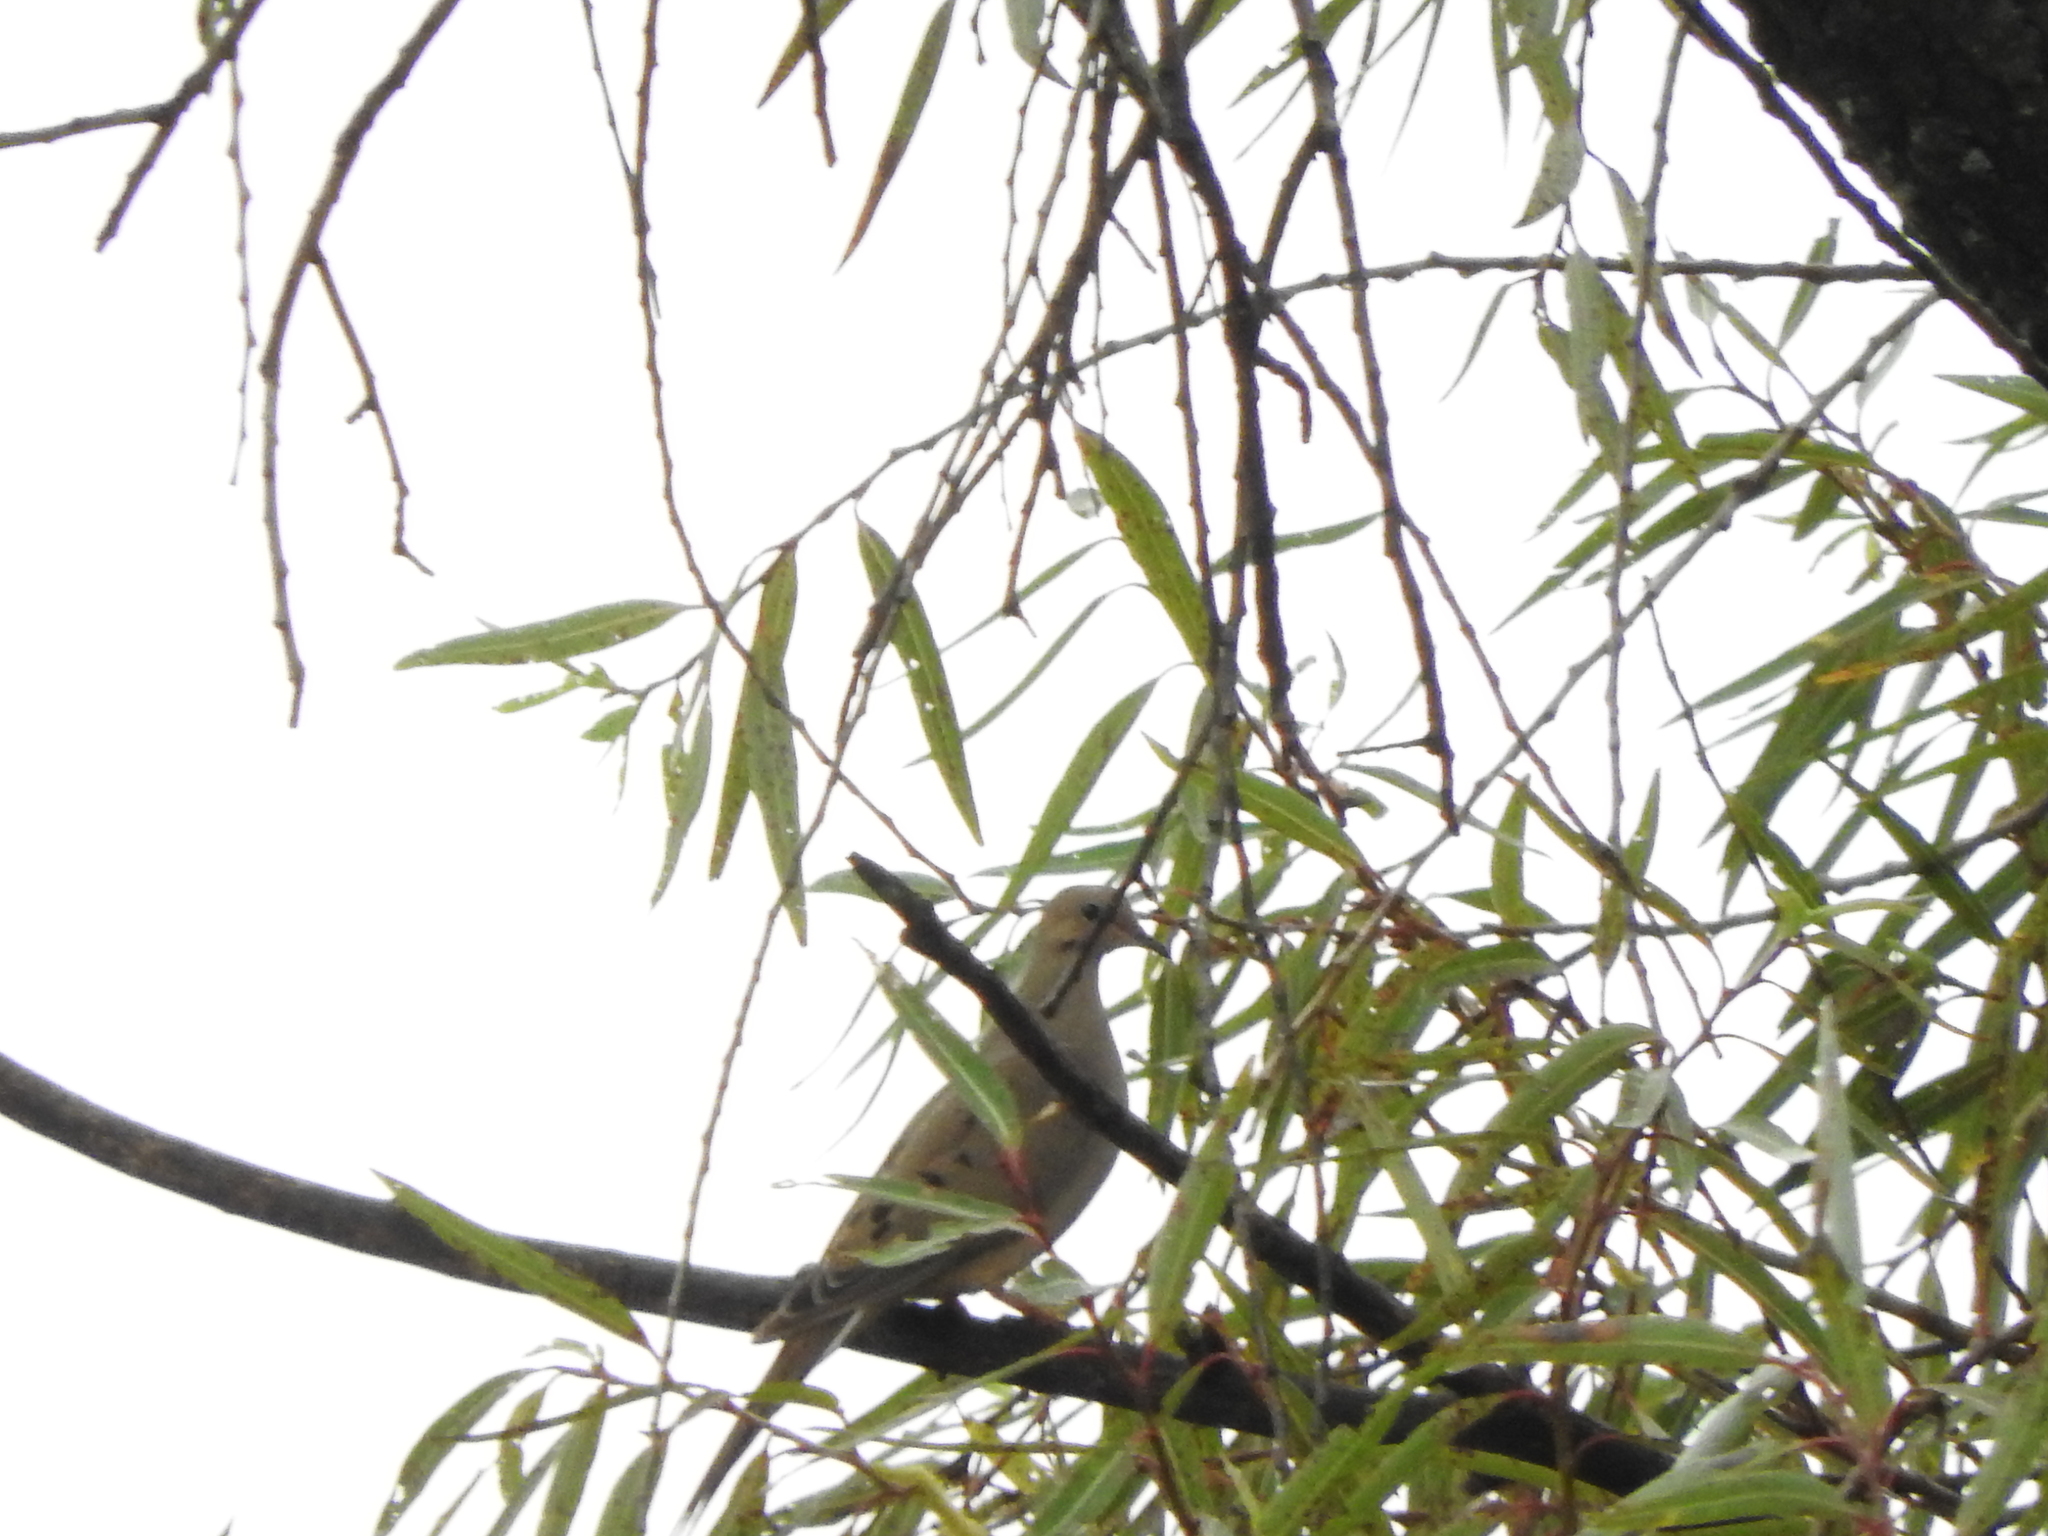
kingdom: Animalia
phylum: Chordata
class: Aves
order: Columbiformes
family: Columbidae
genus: Zenaida
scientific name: Zenaida macroura
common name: Mourning dove
